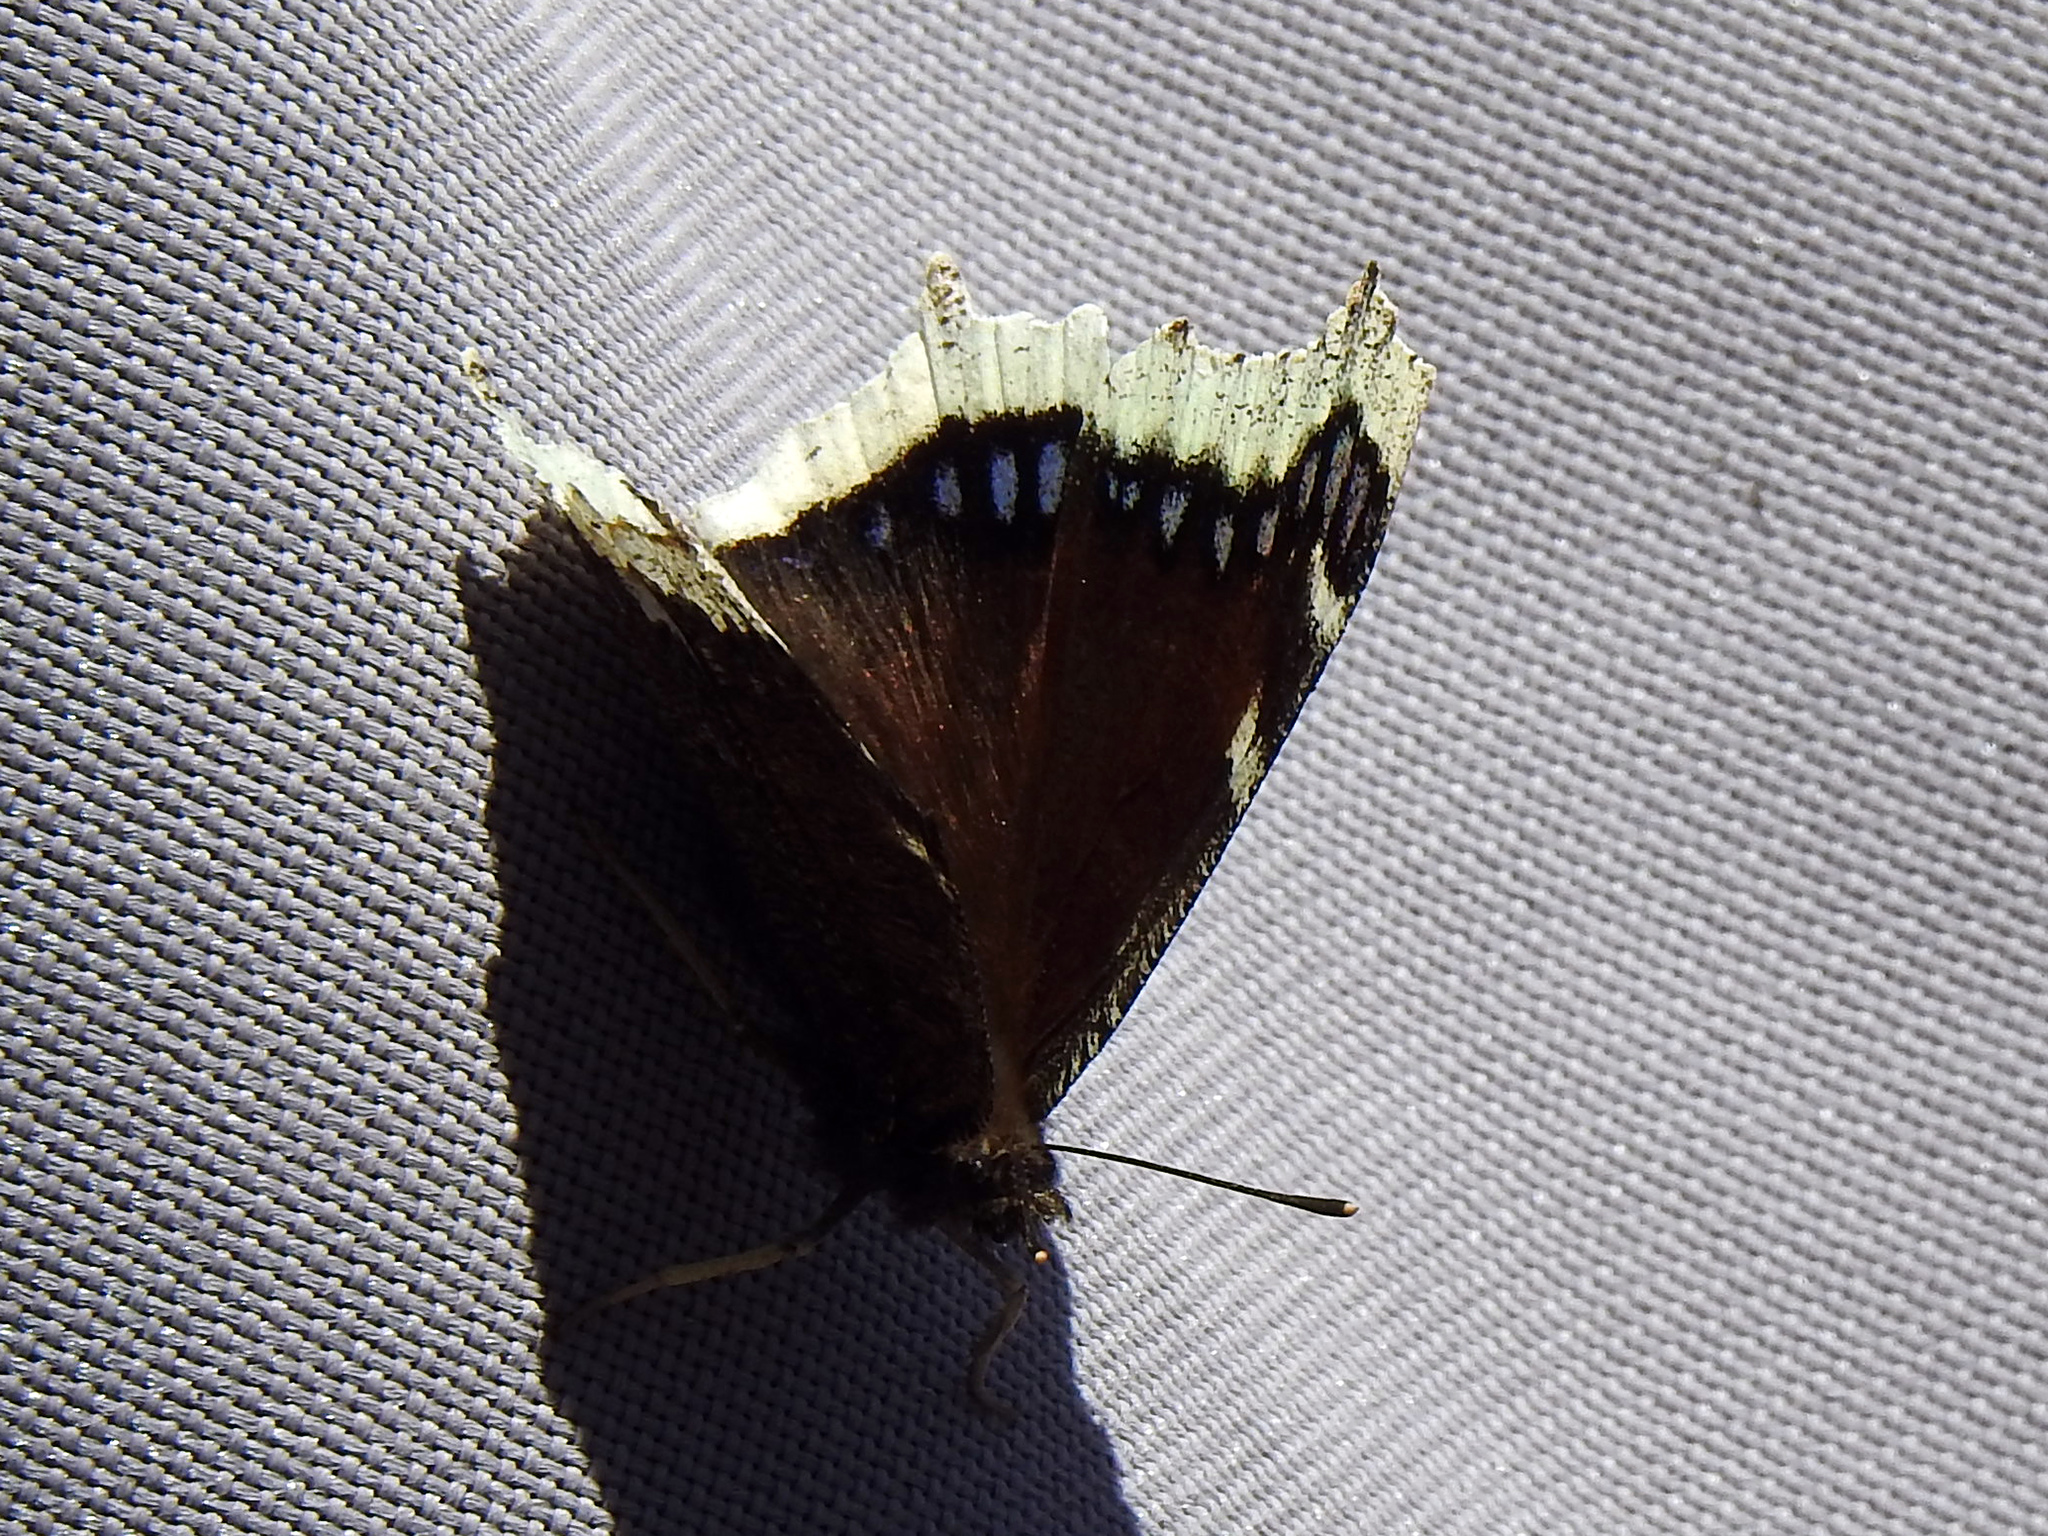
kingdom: Animalia
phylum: Arthropoda
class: Insecta
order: Lepidoptera
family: Nymphalidae
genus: Nymphalis
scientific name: Nymphalis antiopa
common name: Camberwell beauty
